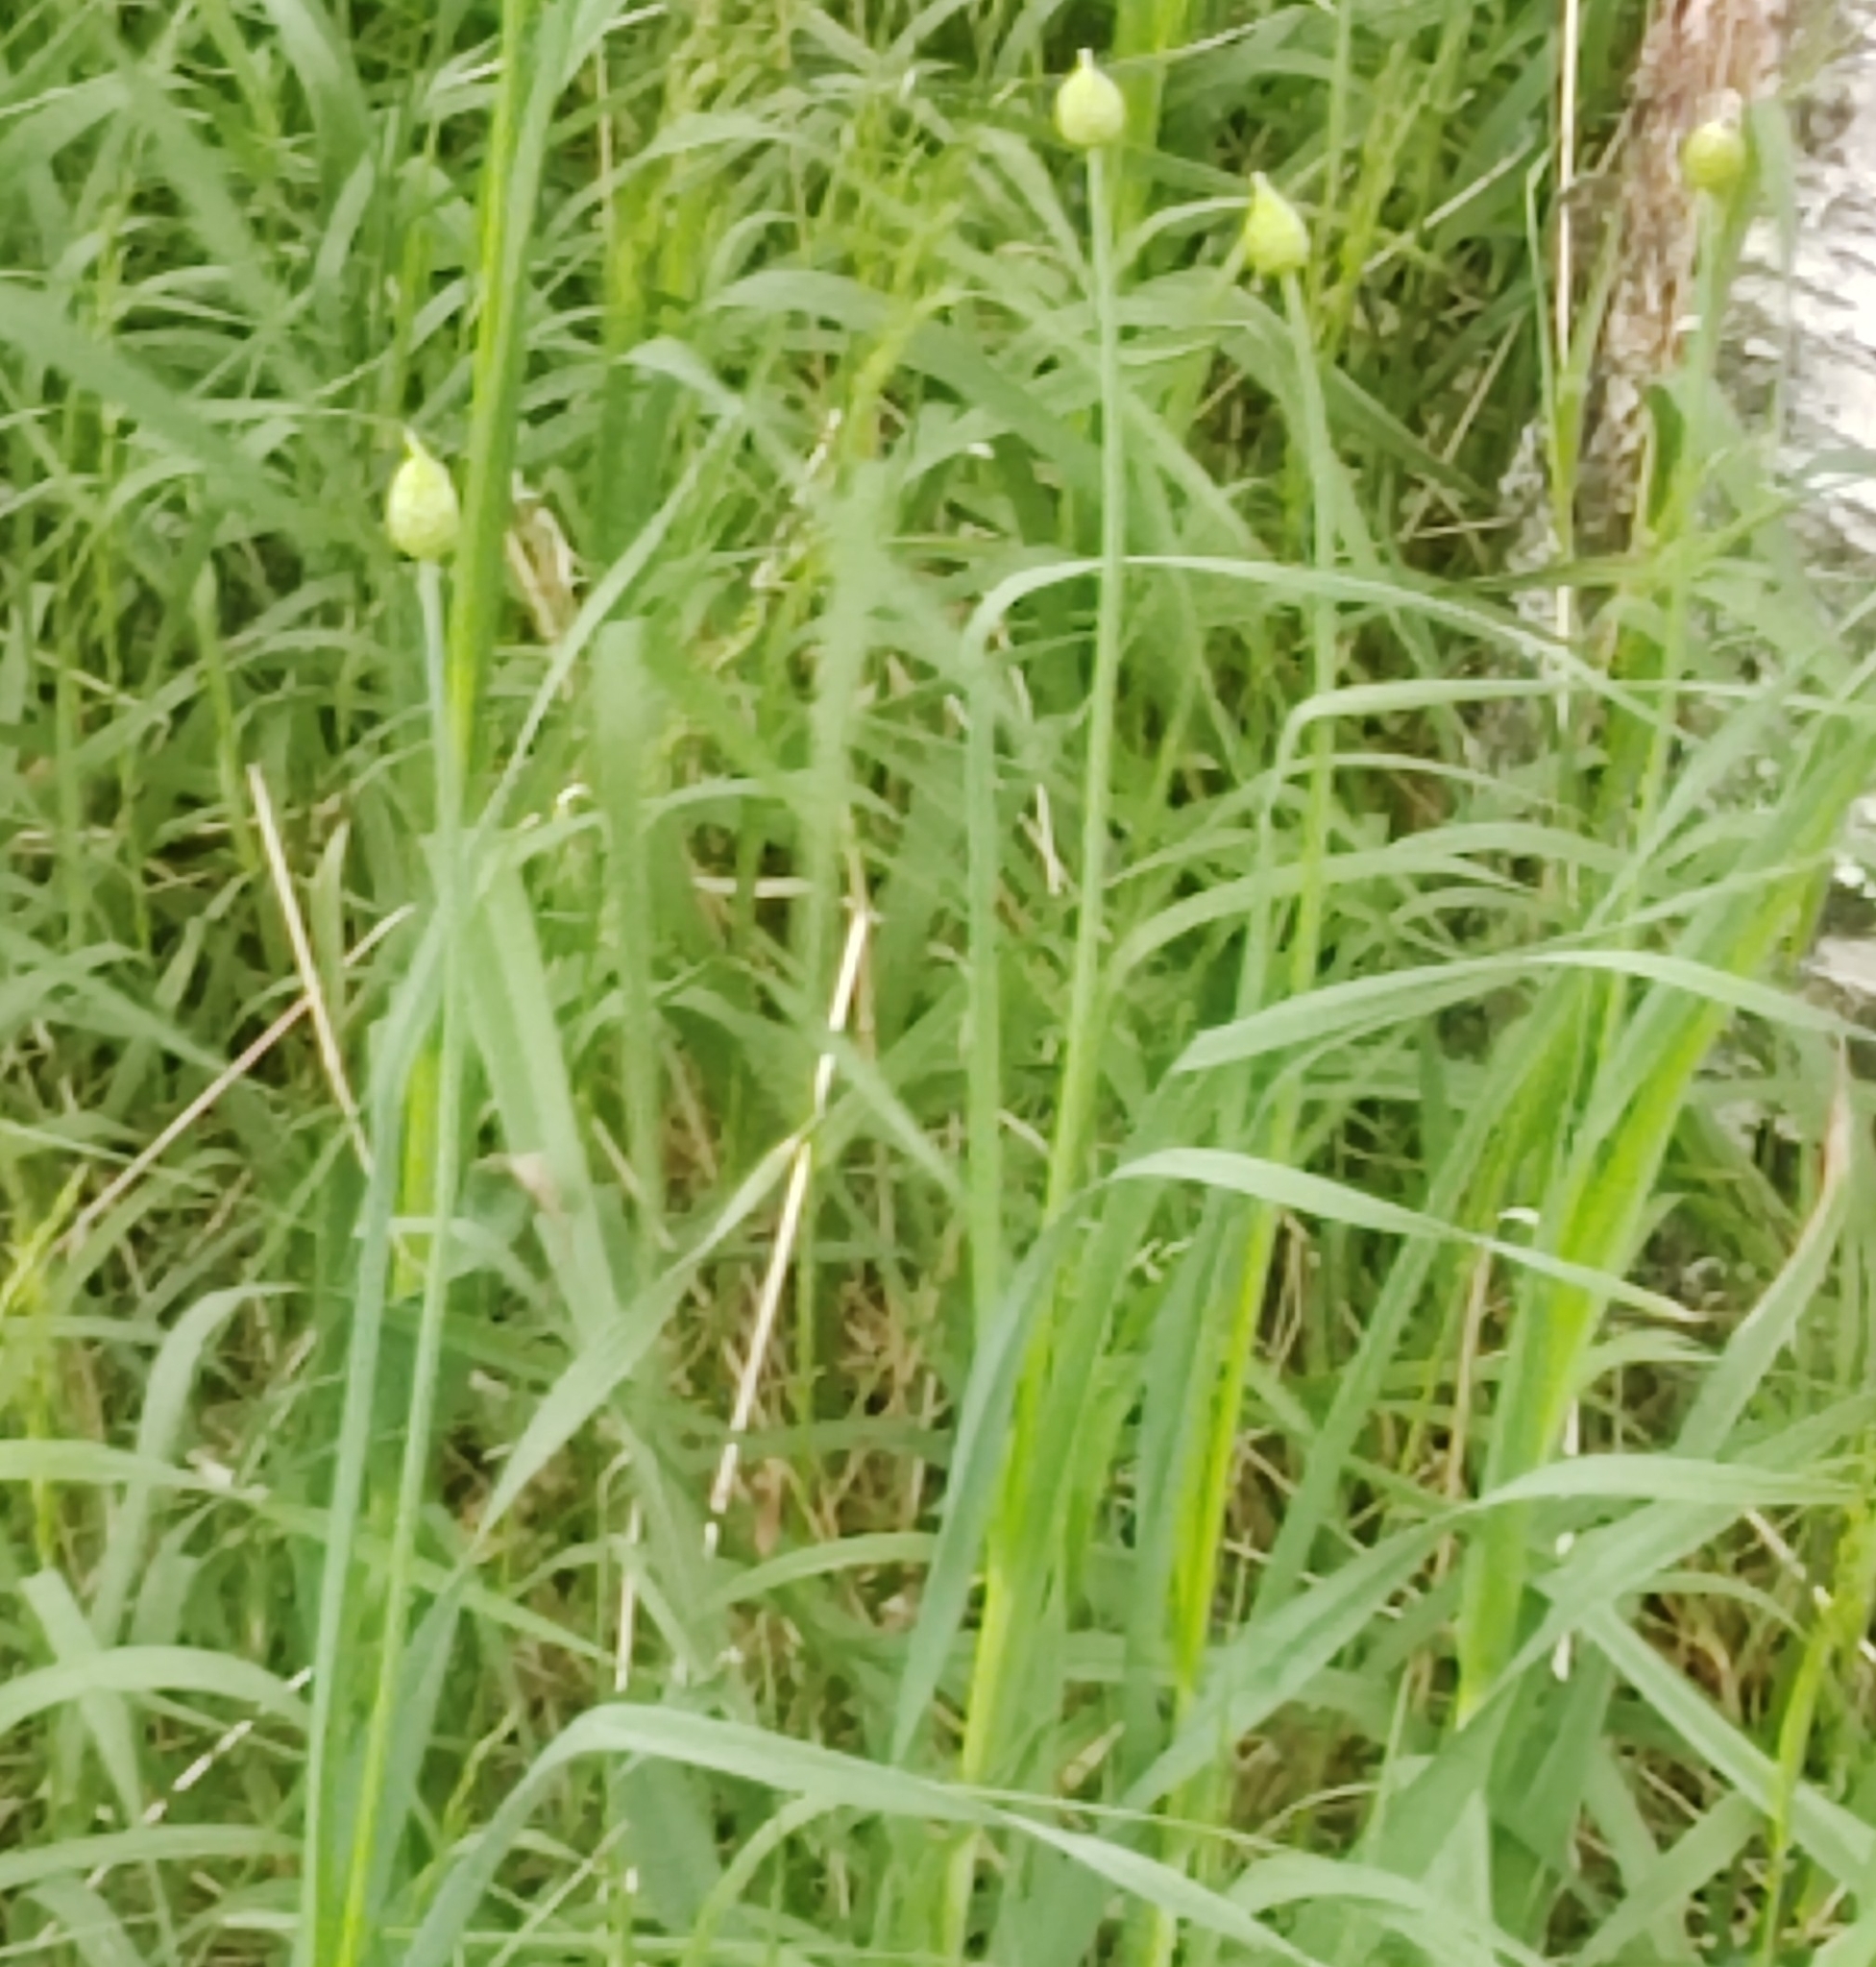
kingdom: Plantae
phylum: Tracheophyta
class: Liliopsida
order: Asparagales
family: Amaryllidaceae
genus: Allium
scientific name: Allium obliquum
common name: Oblique onion
